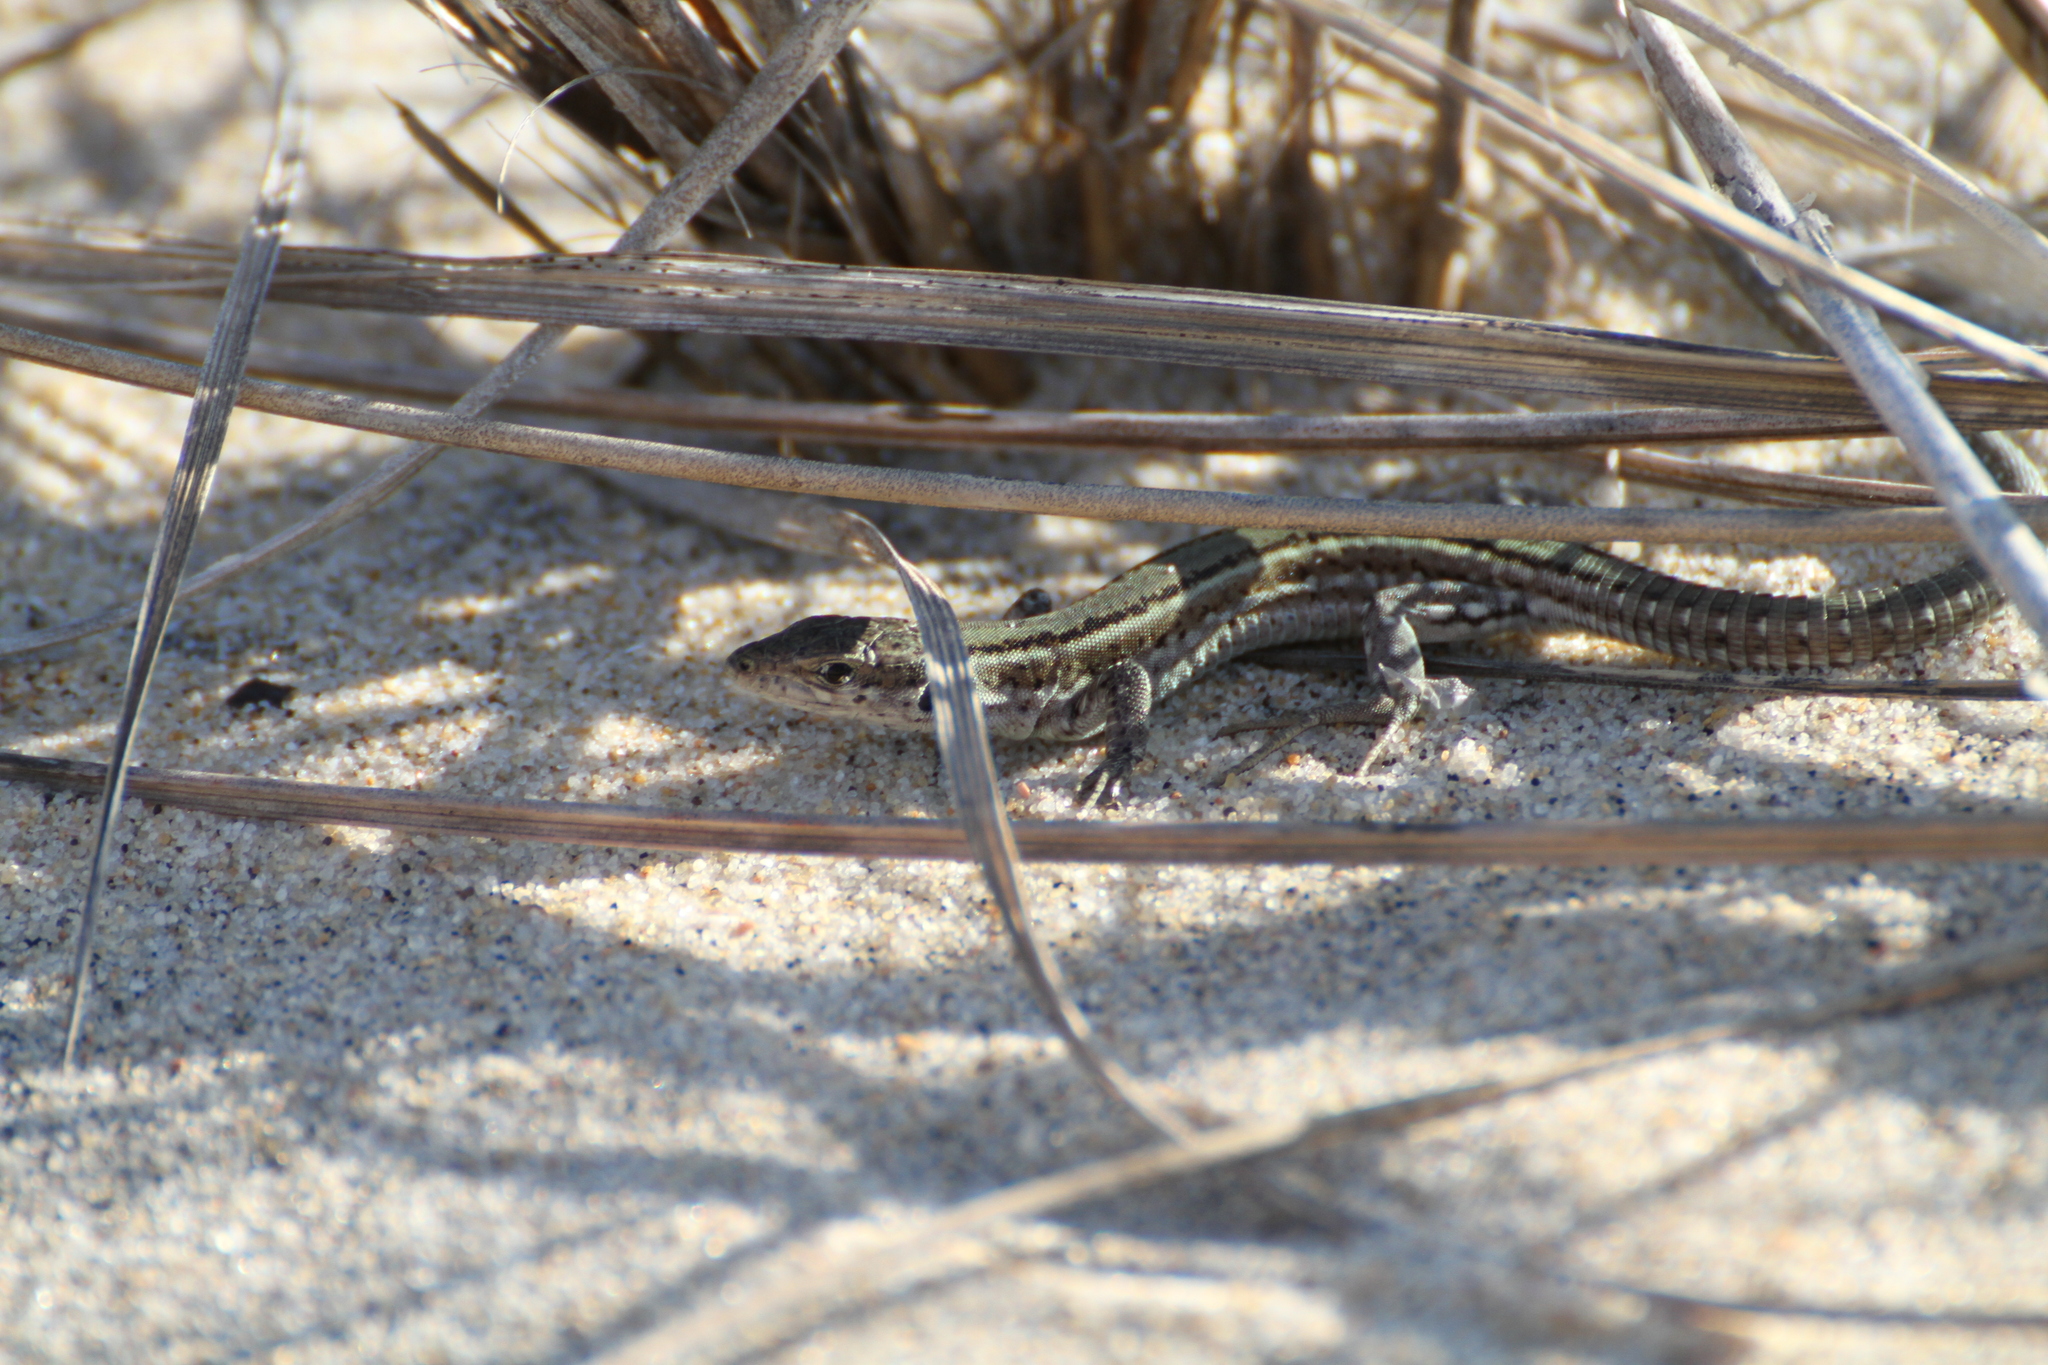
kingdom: Animalia
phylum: Chordata
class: Squamata
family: Lacertidae
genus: Podarcis
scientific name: Podarcis vaucheri
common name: Vaucher's wall lizard
